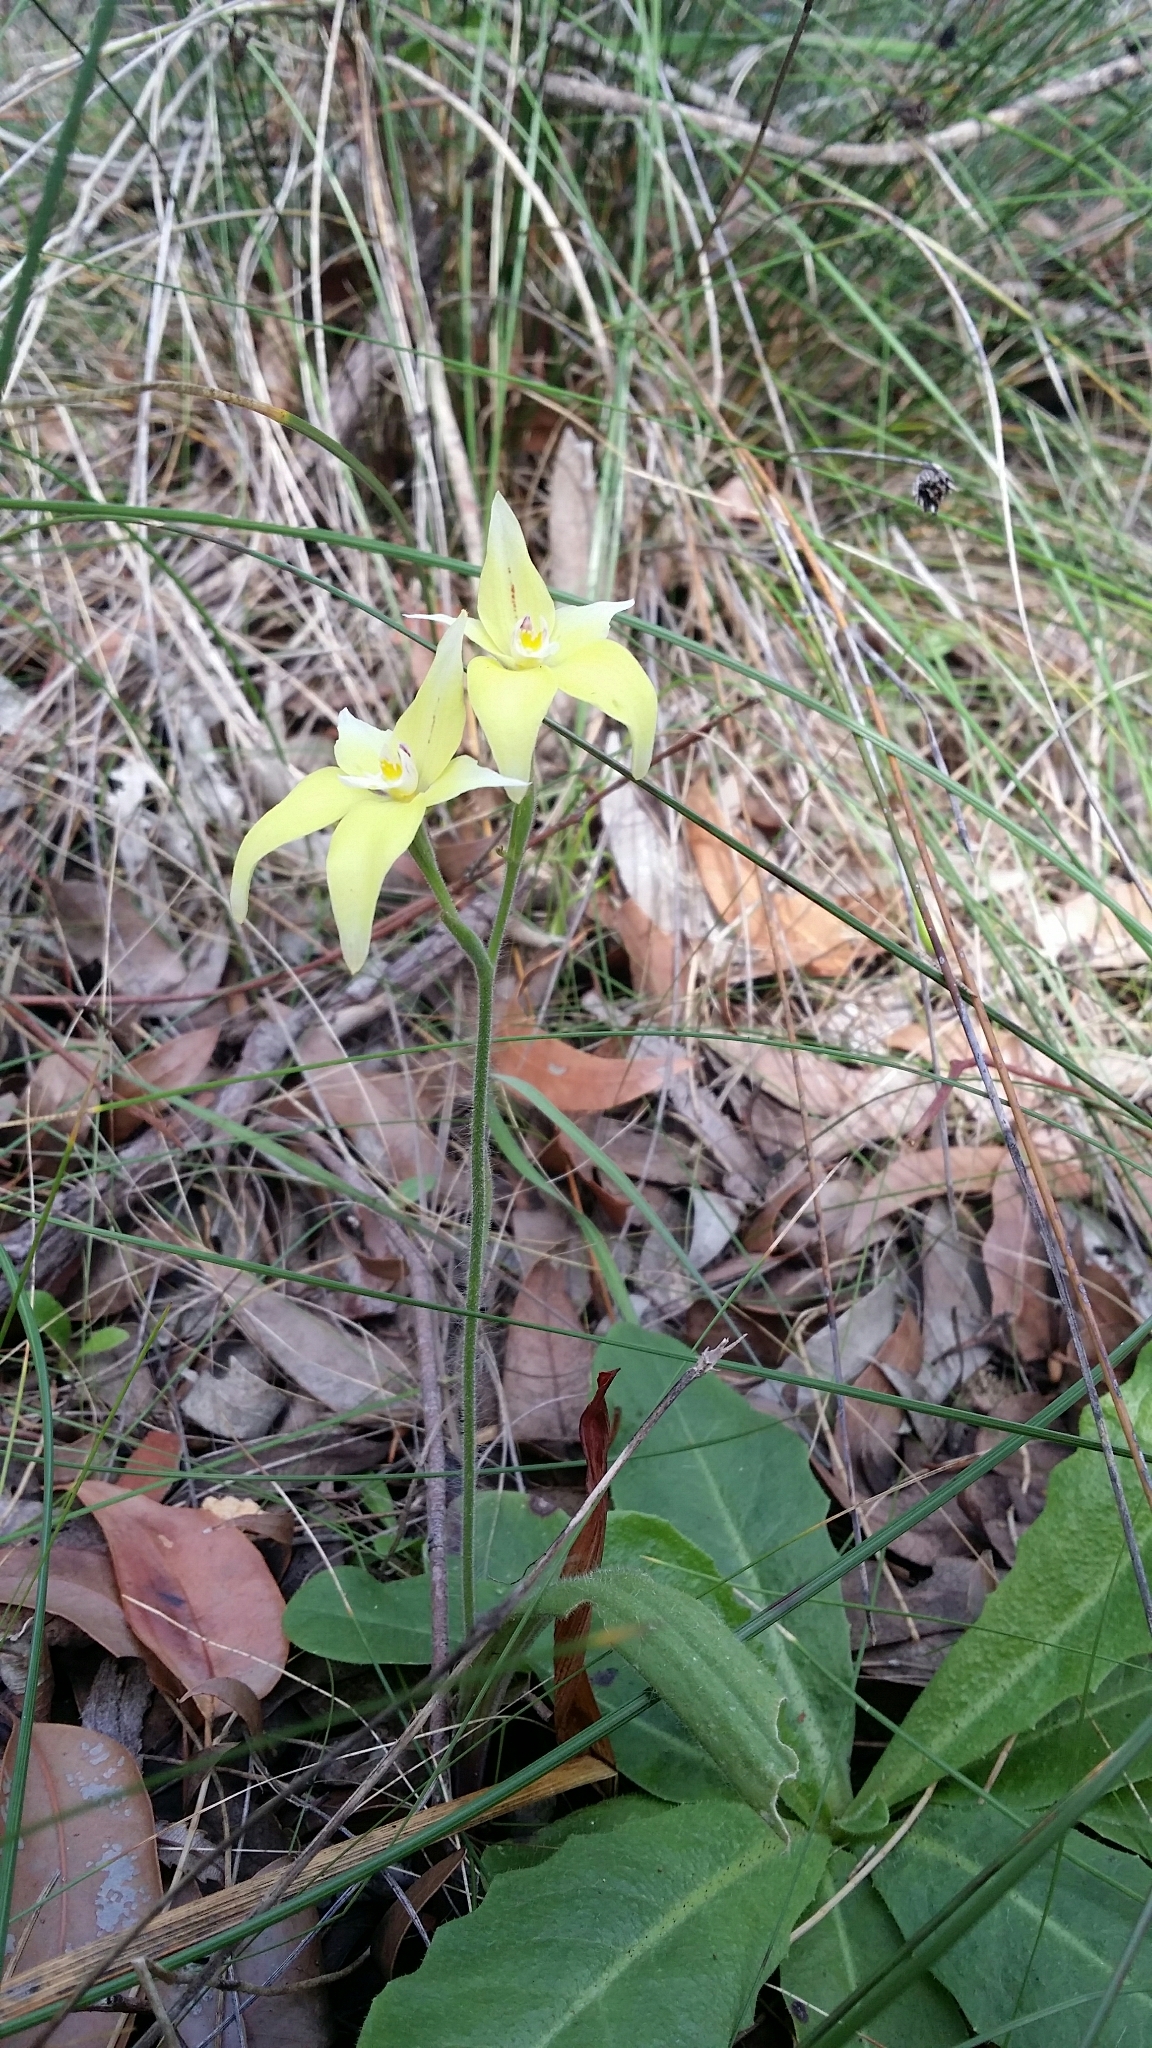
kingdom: Plantae
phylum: Tracheophyta
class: Liliopsida
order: Asparagales
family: Orchidaceae
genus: Caladenia
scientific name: Caladenia flava
